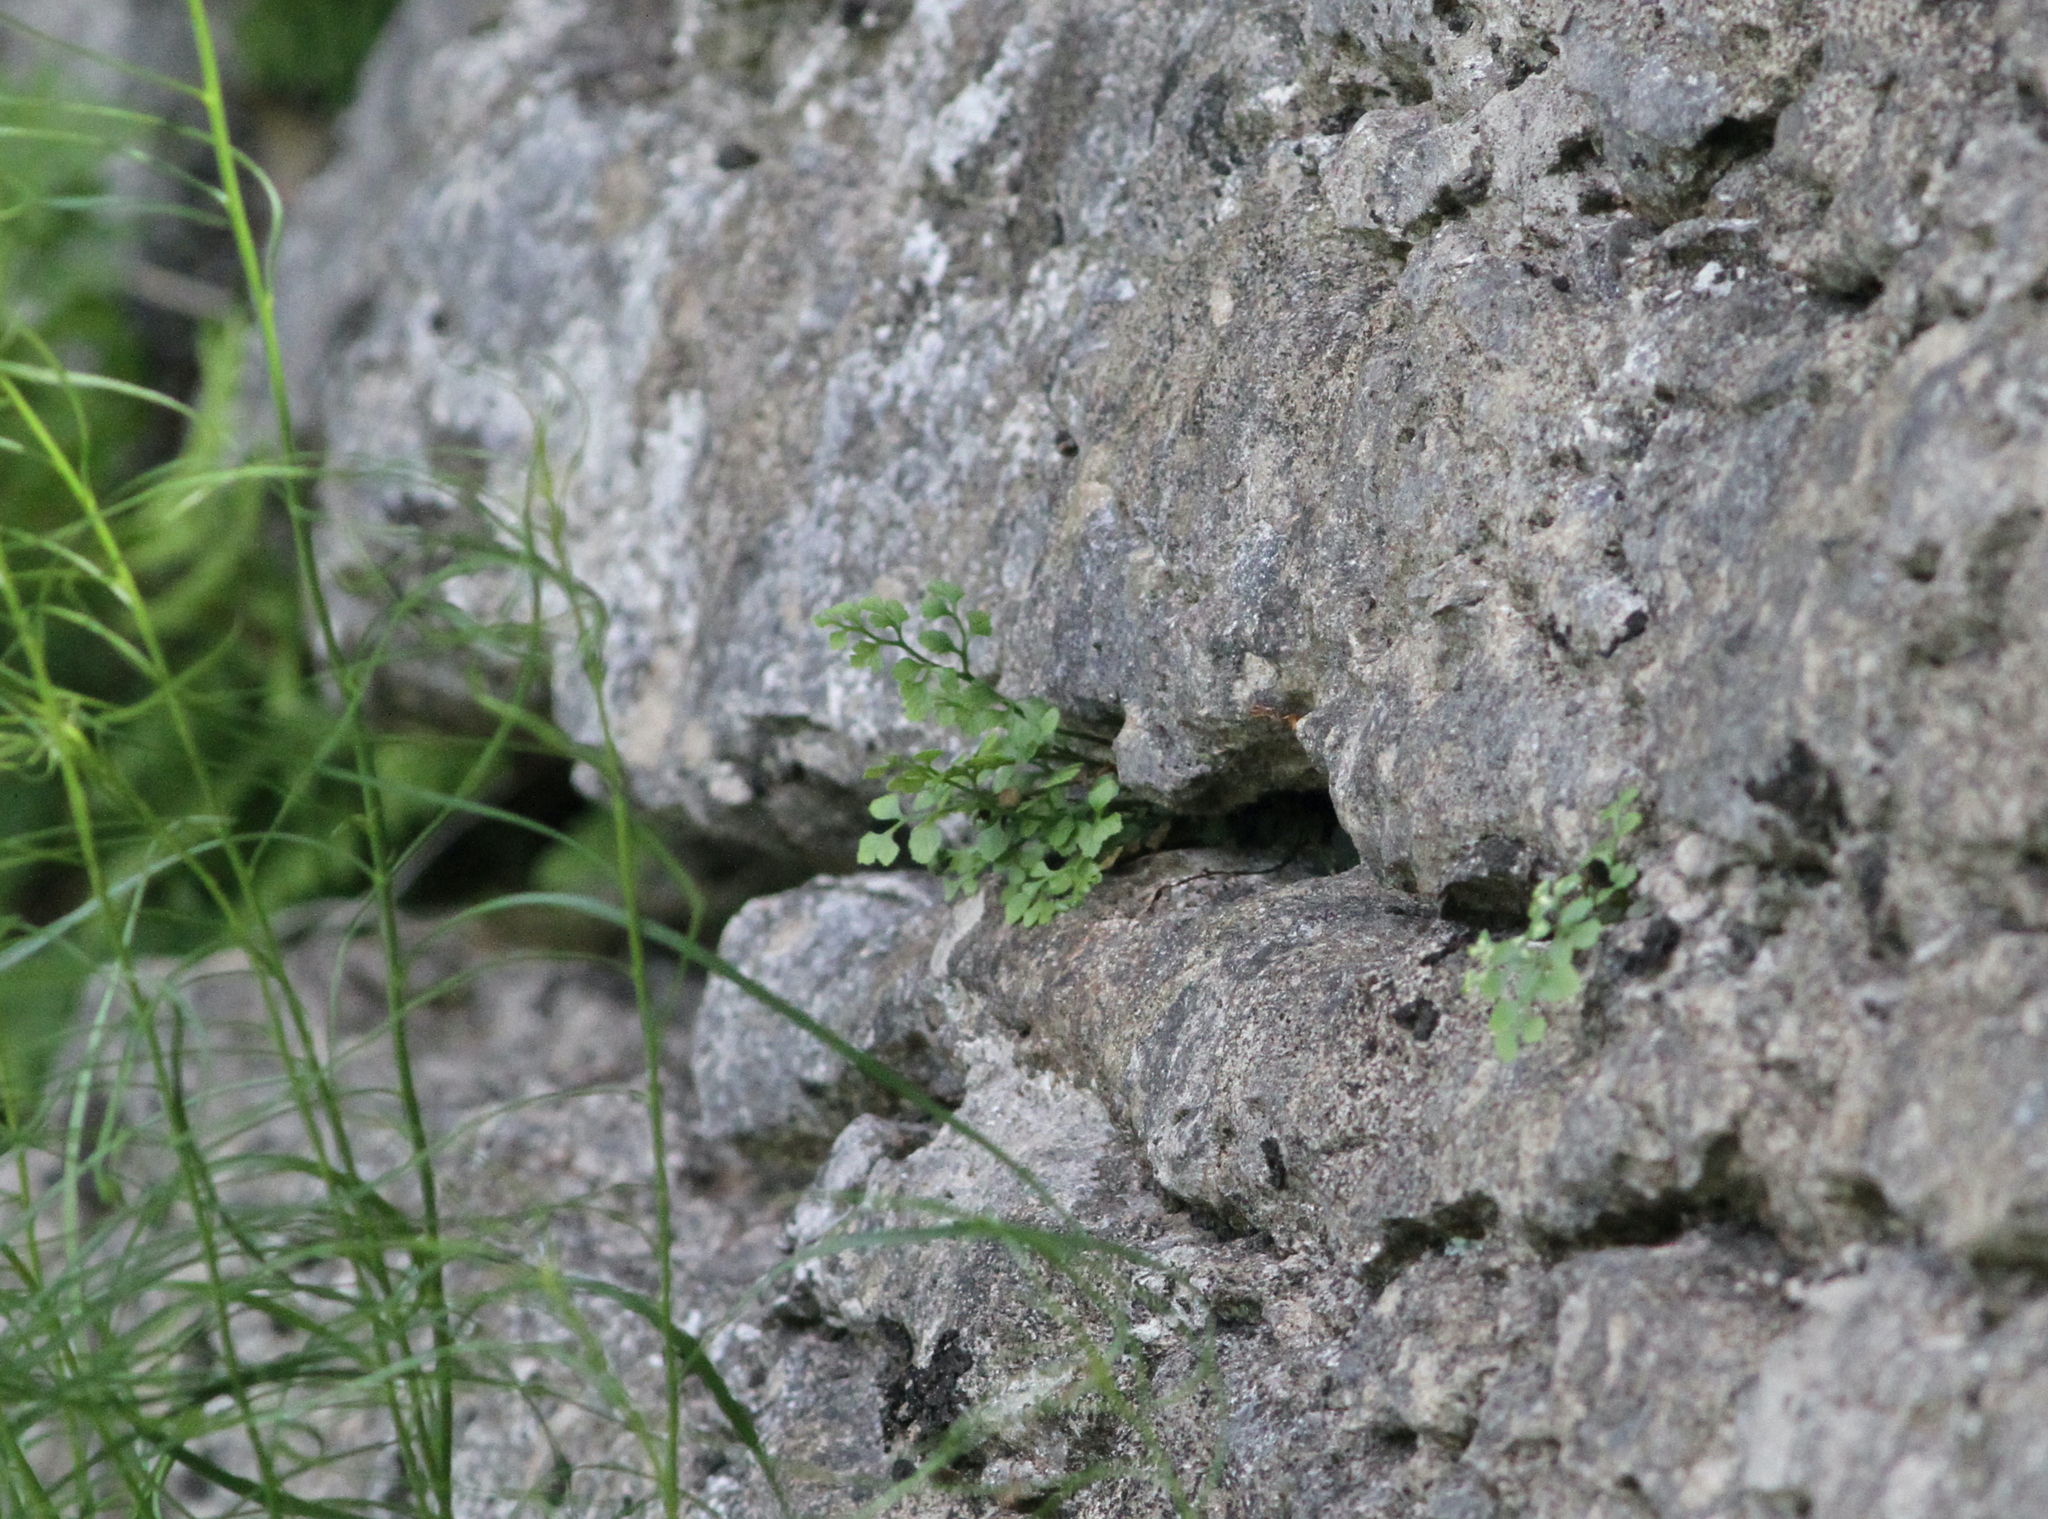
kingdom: Plantae
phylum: Tracheophyta
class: Polypodiopsida
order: Polypodiales
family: Aspleniaceae
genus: Asplenium
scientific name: Asplenium ruta-muraria
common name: Wall-rue
